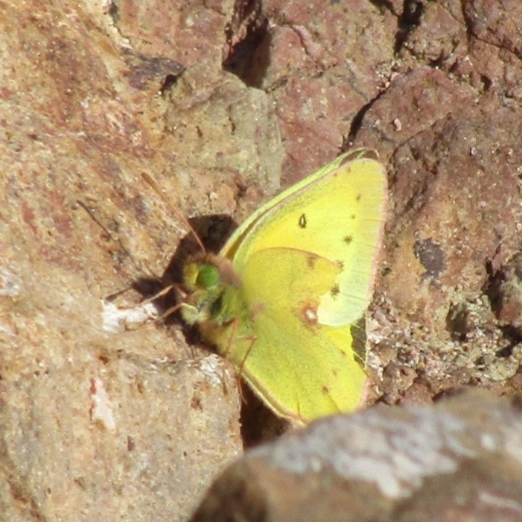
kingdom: Animalia
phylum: Arthropoda
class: Insecta
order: Lepidoptera
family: Pieridae
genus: Colias
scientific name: Colias eurytheme
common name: Alfalfa butterfly
